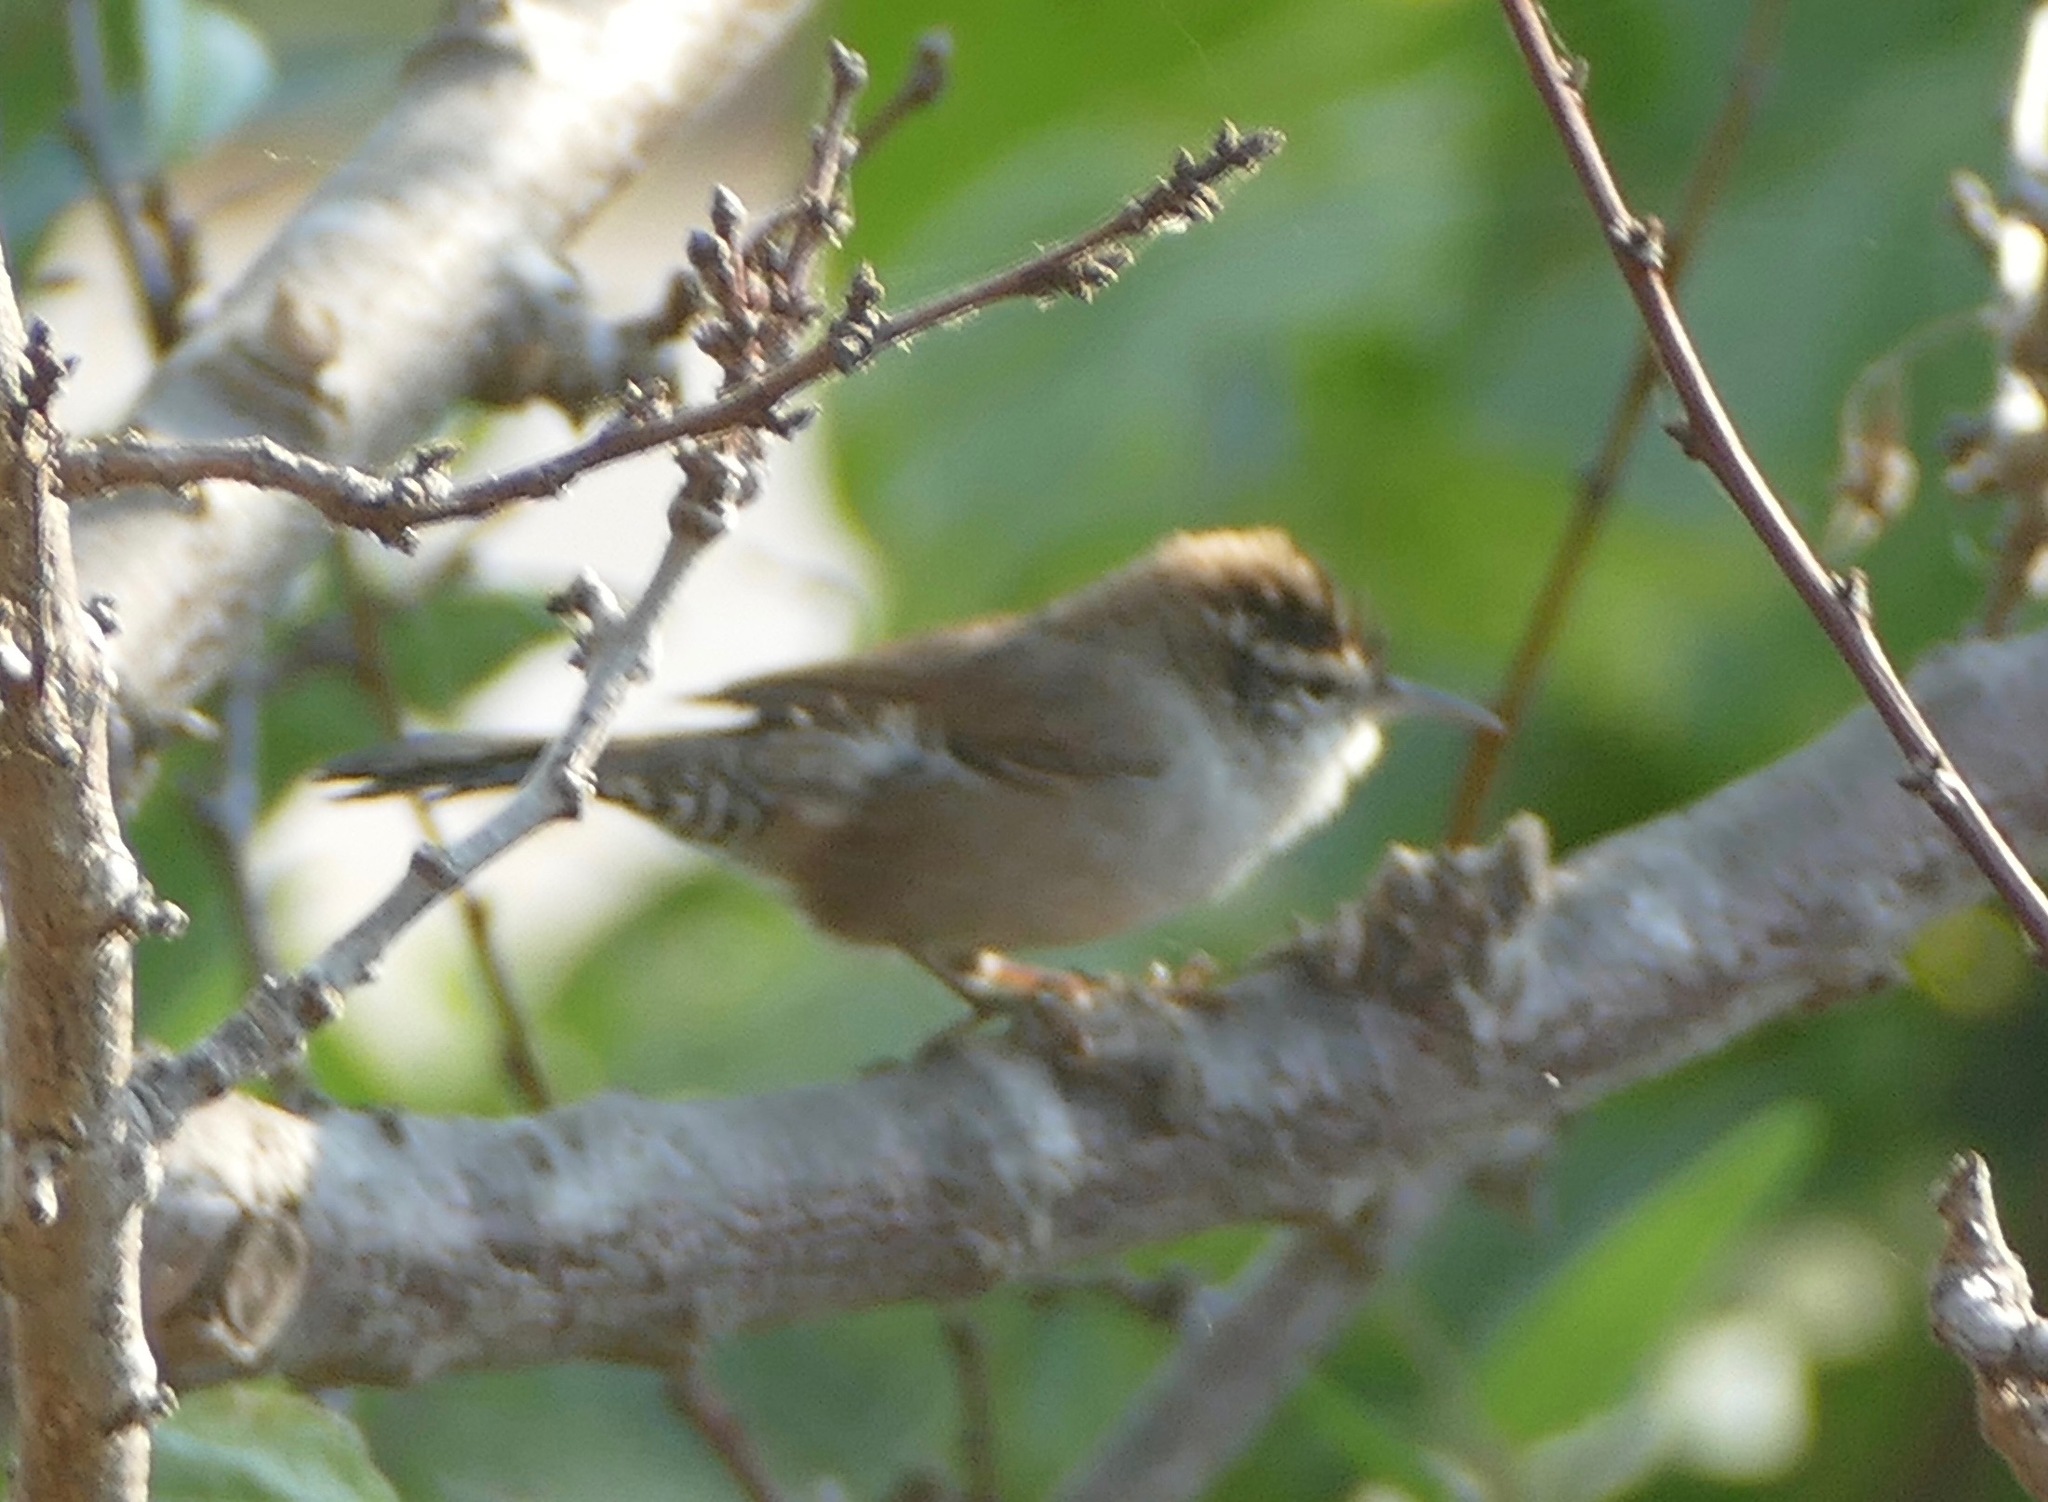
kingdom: Animalia
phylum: Chordata
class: Aves
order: Passeriformes
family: Troglodytidae
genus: Thryomanes
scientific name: Thryomanes bewickii
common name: Bewick's wren
